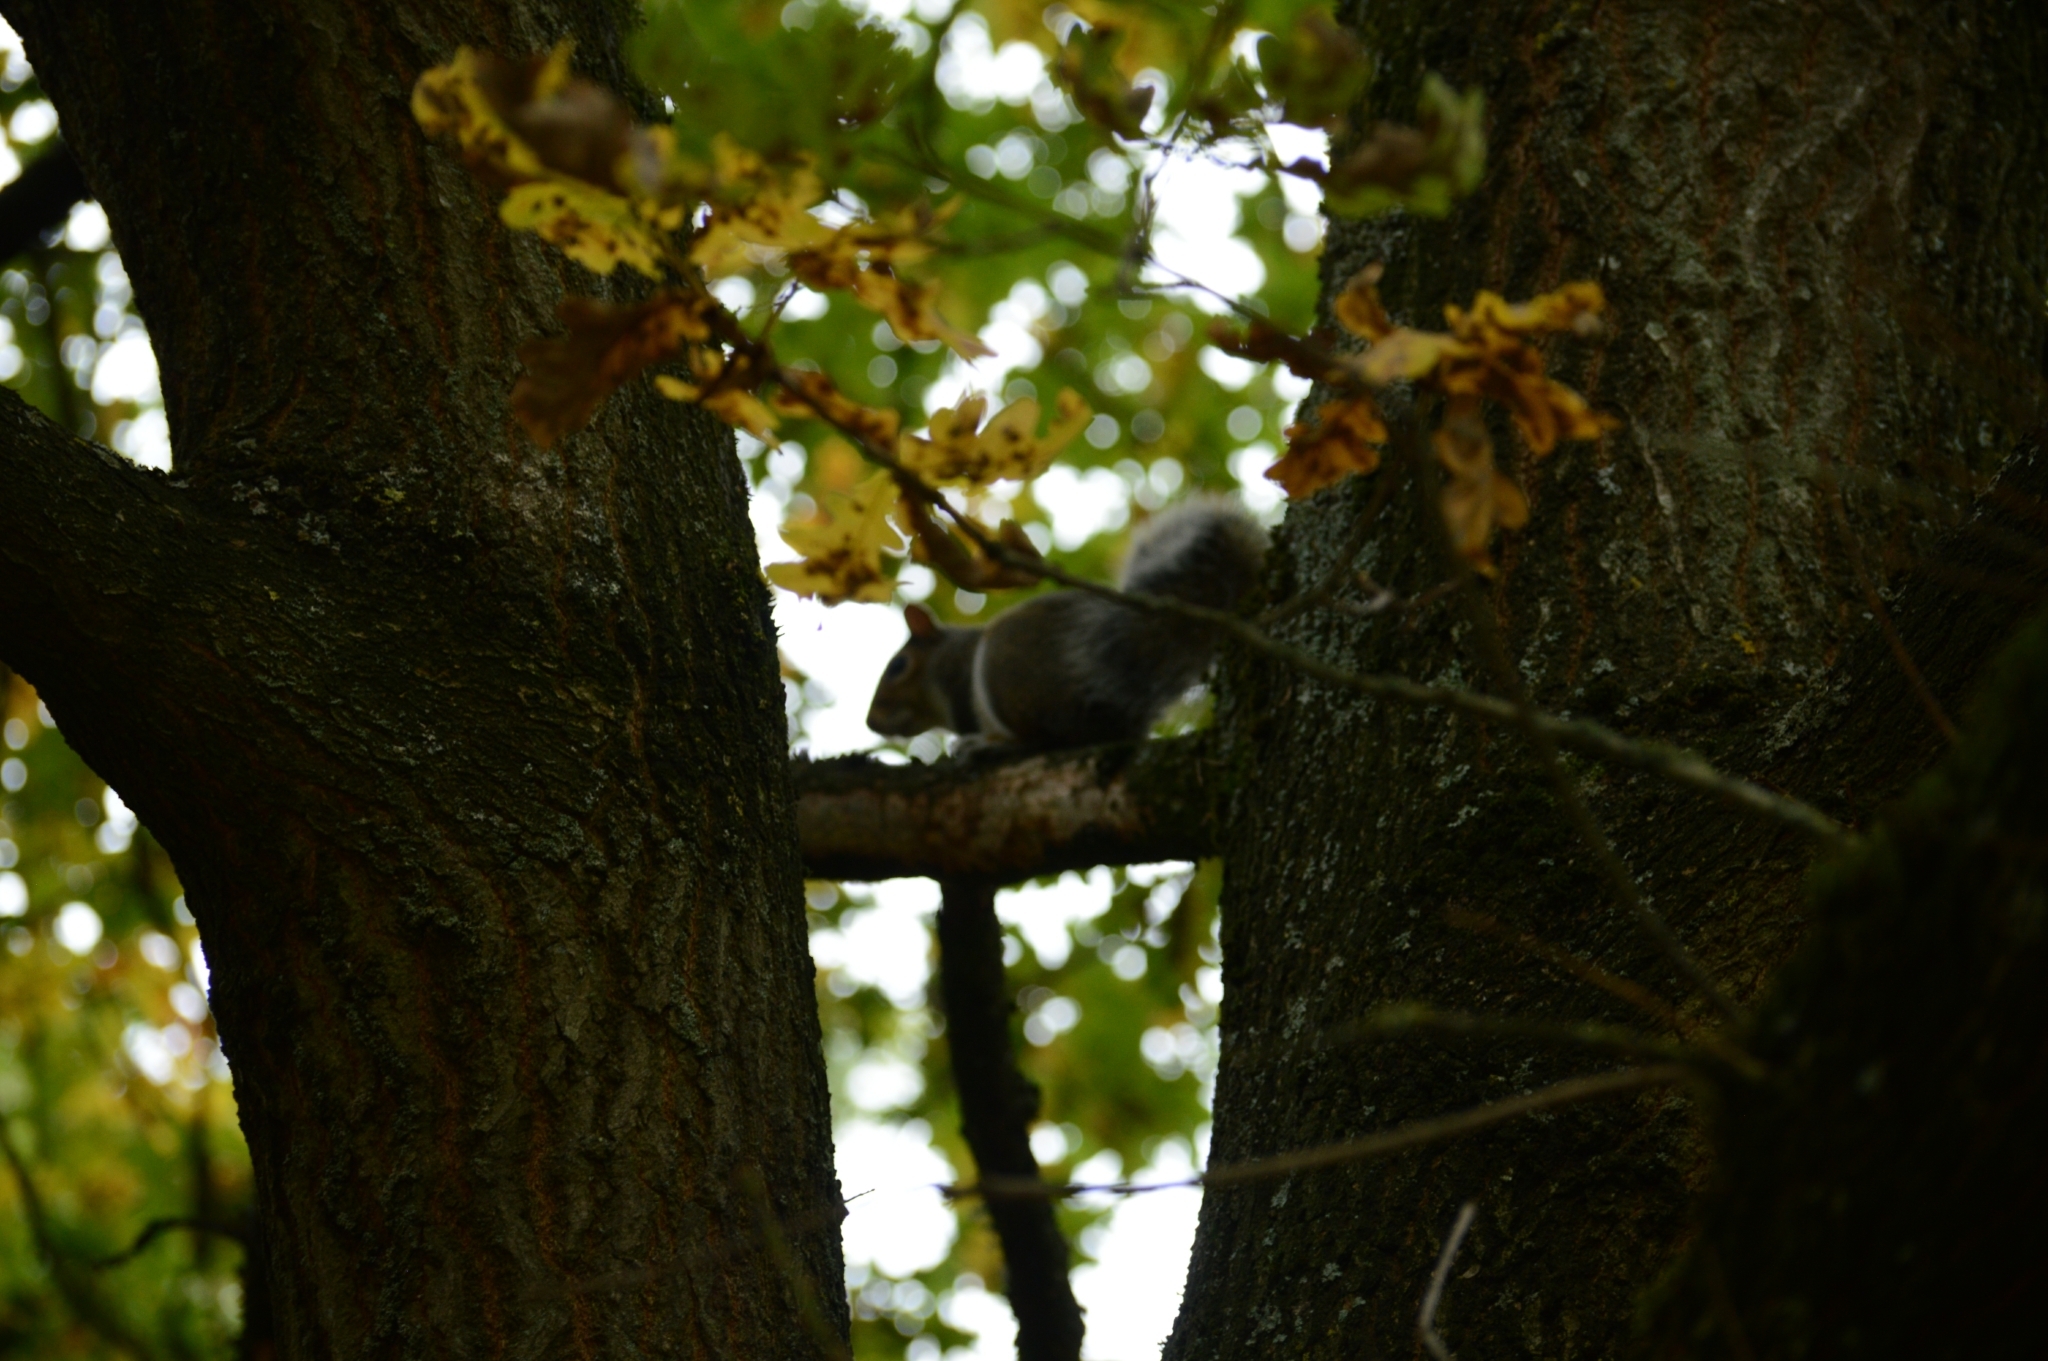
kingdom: Animalia
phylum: Chordata
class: Mammalia
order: Rodentia
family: Sciuridae
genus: Sciurus
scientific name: Sciurus carolinensis
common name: Eastern gray squirrel
